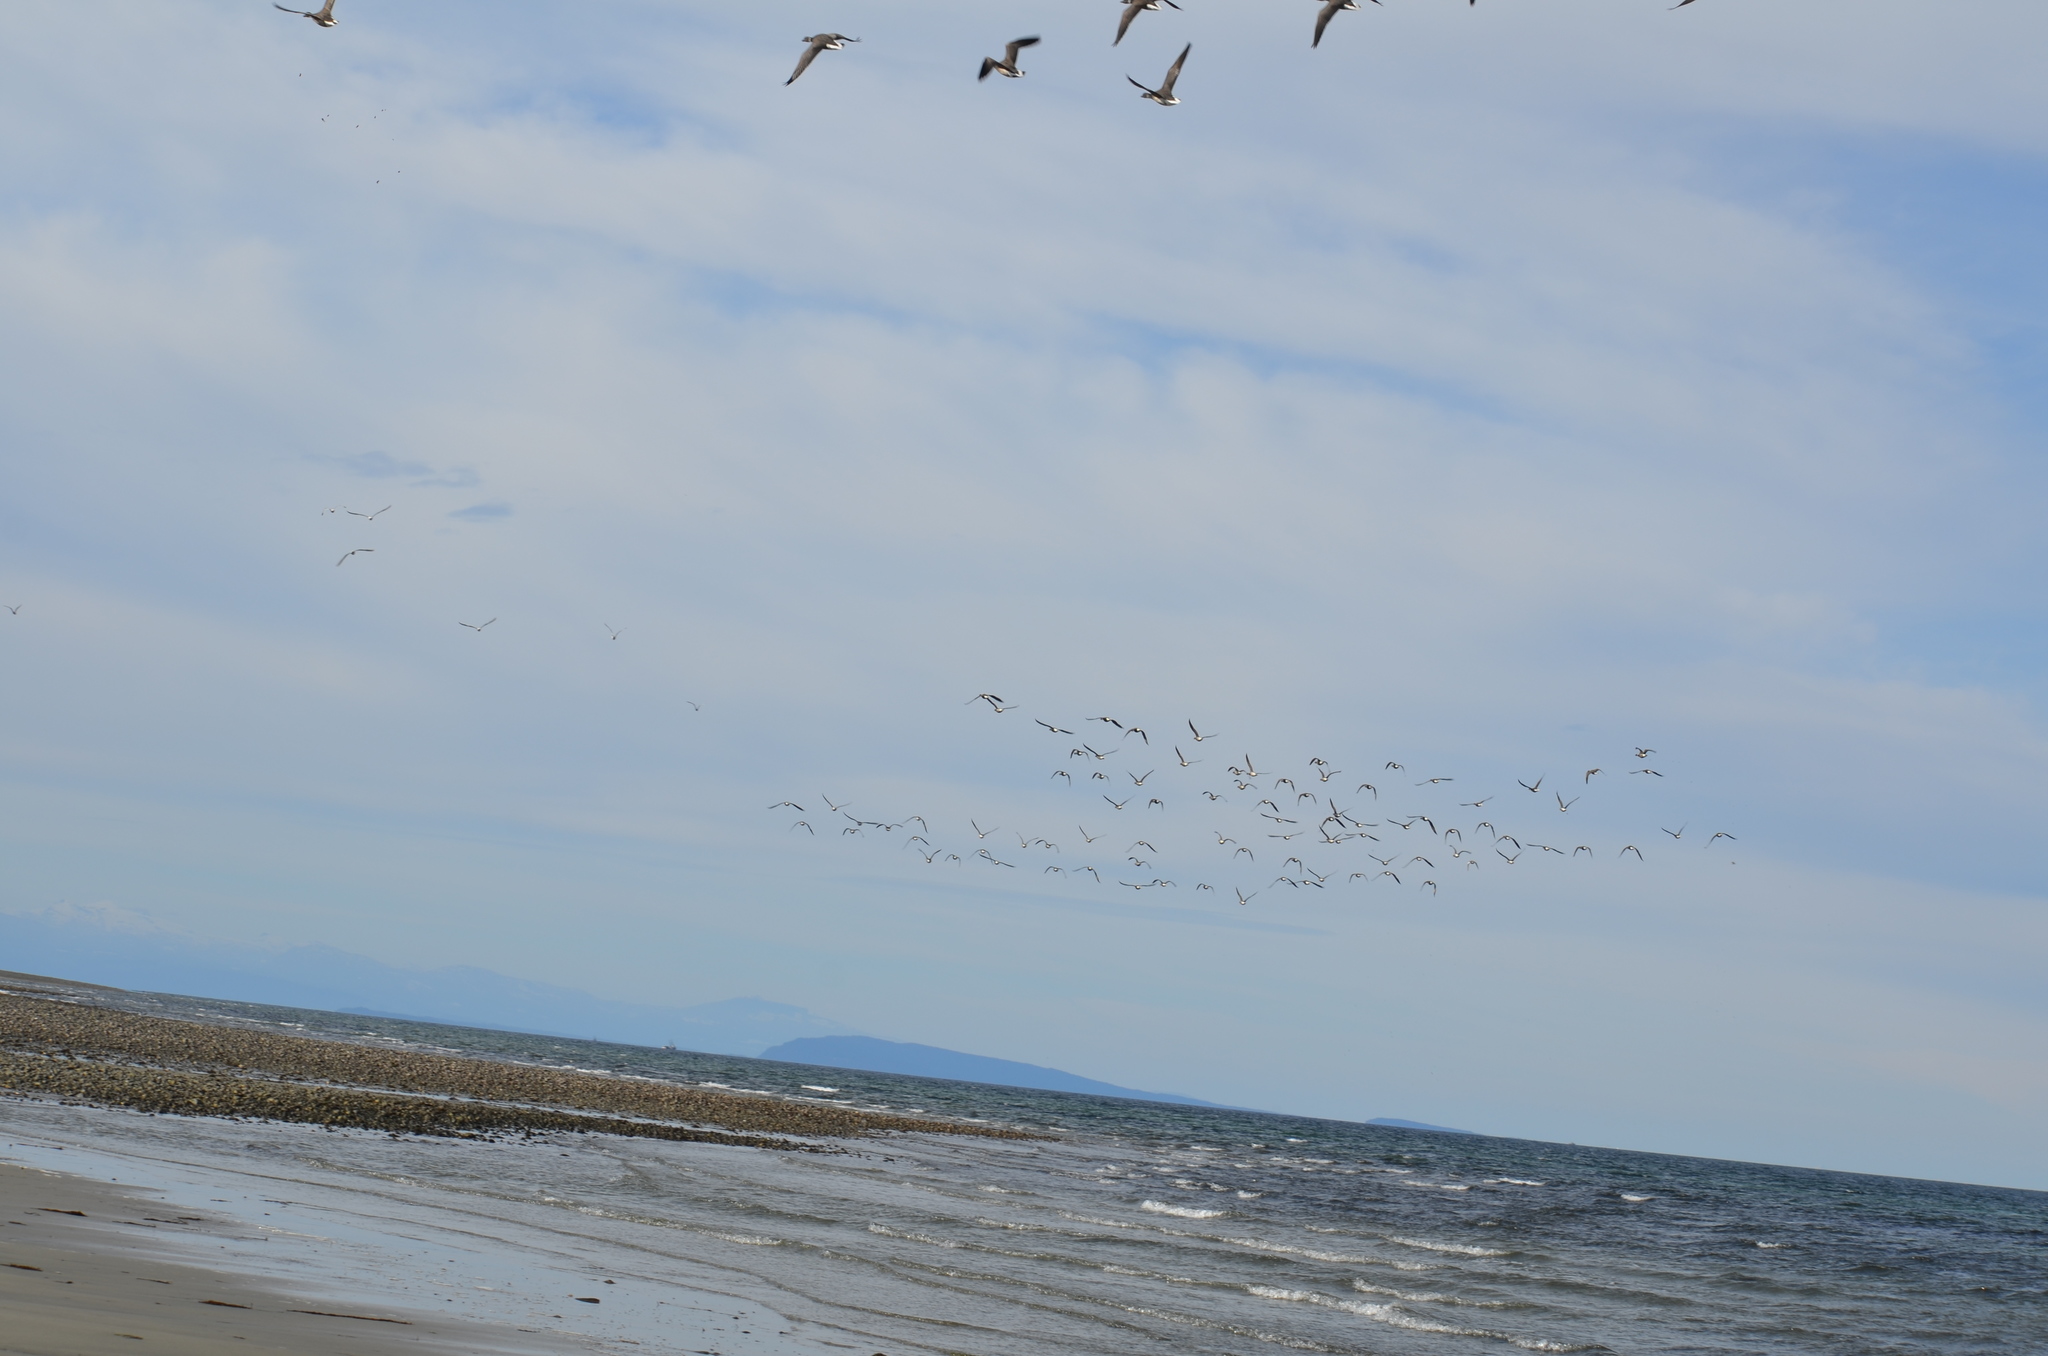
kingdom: Animalia
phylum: Chordata
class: Aves
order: Anseriformes
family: Anatidae
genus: Branta
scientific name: Branta bernicla
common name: Brant goose
